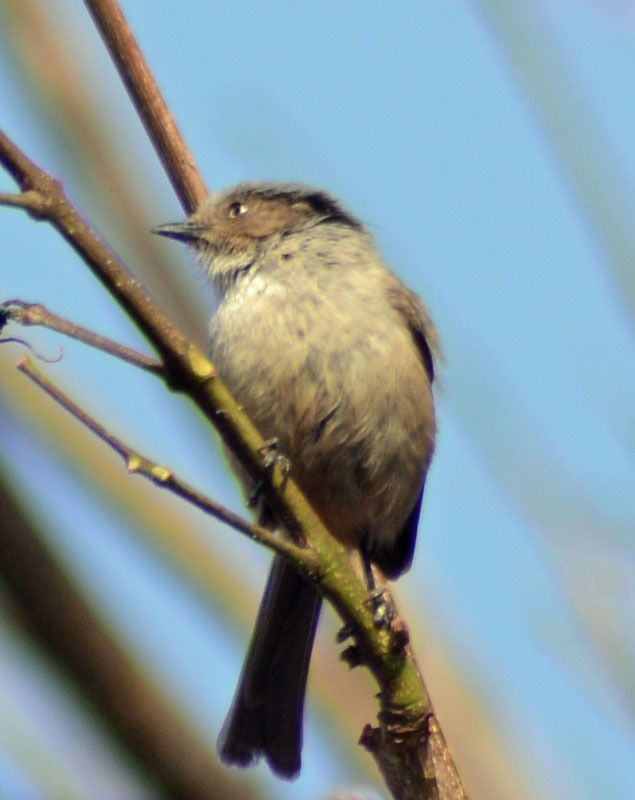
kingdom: Animalia
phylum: Chordata
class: Aves
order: Passeriformes
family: Aegithalidae
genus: Psaltriparus
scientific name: Psaltriparus minimus
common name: American bushtit
